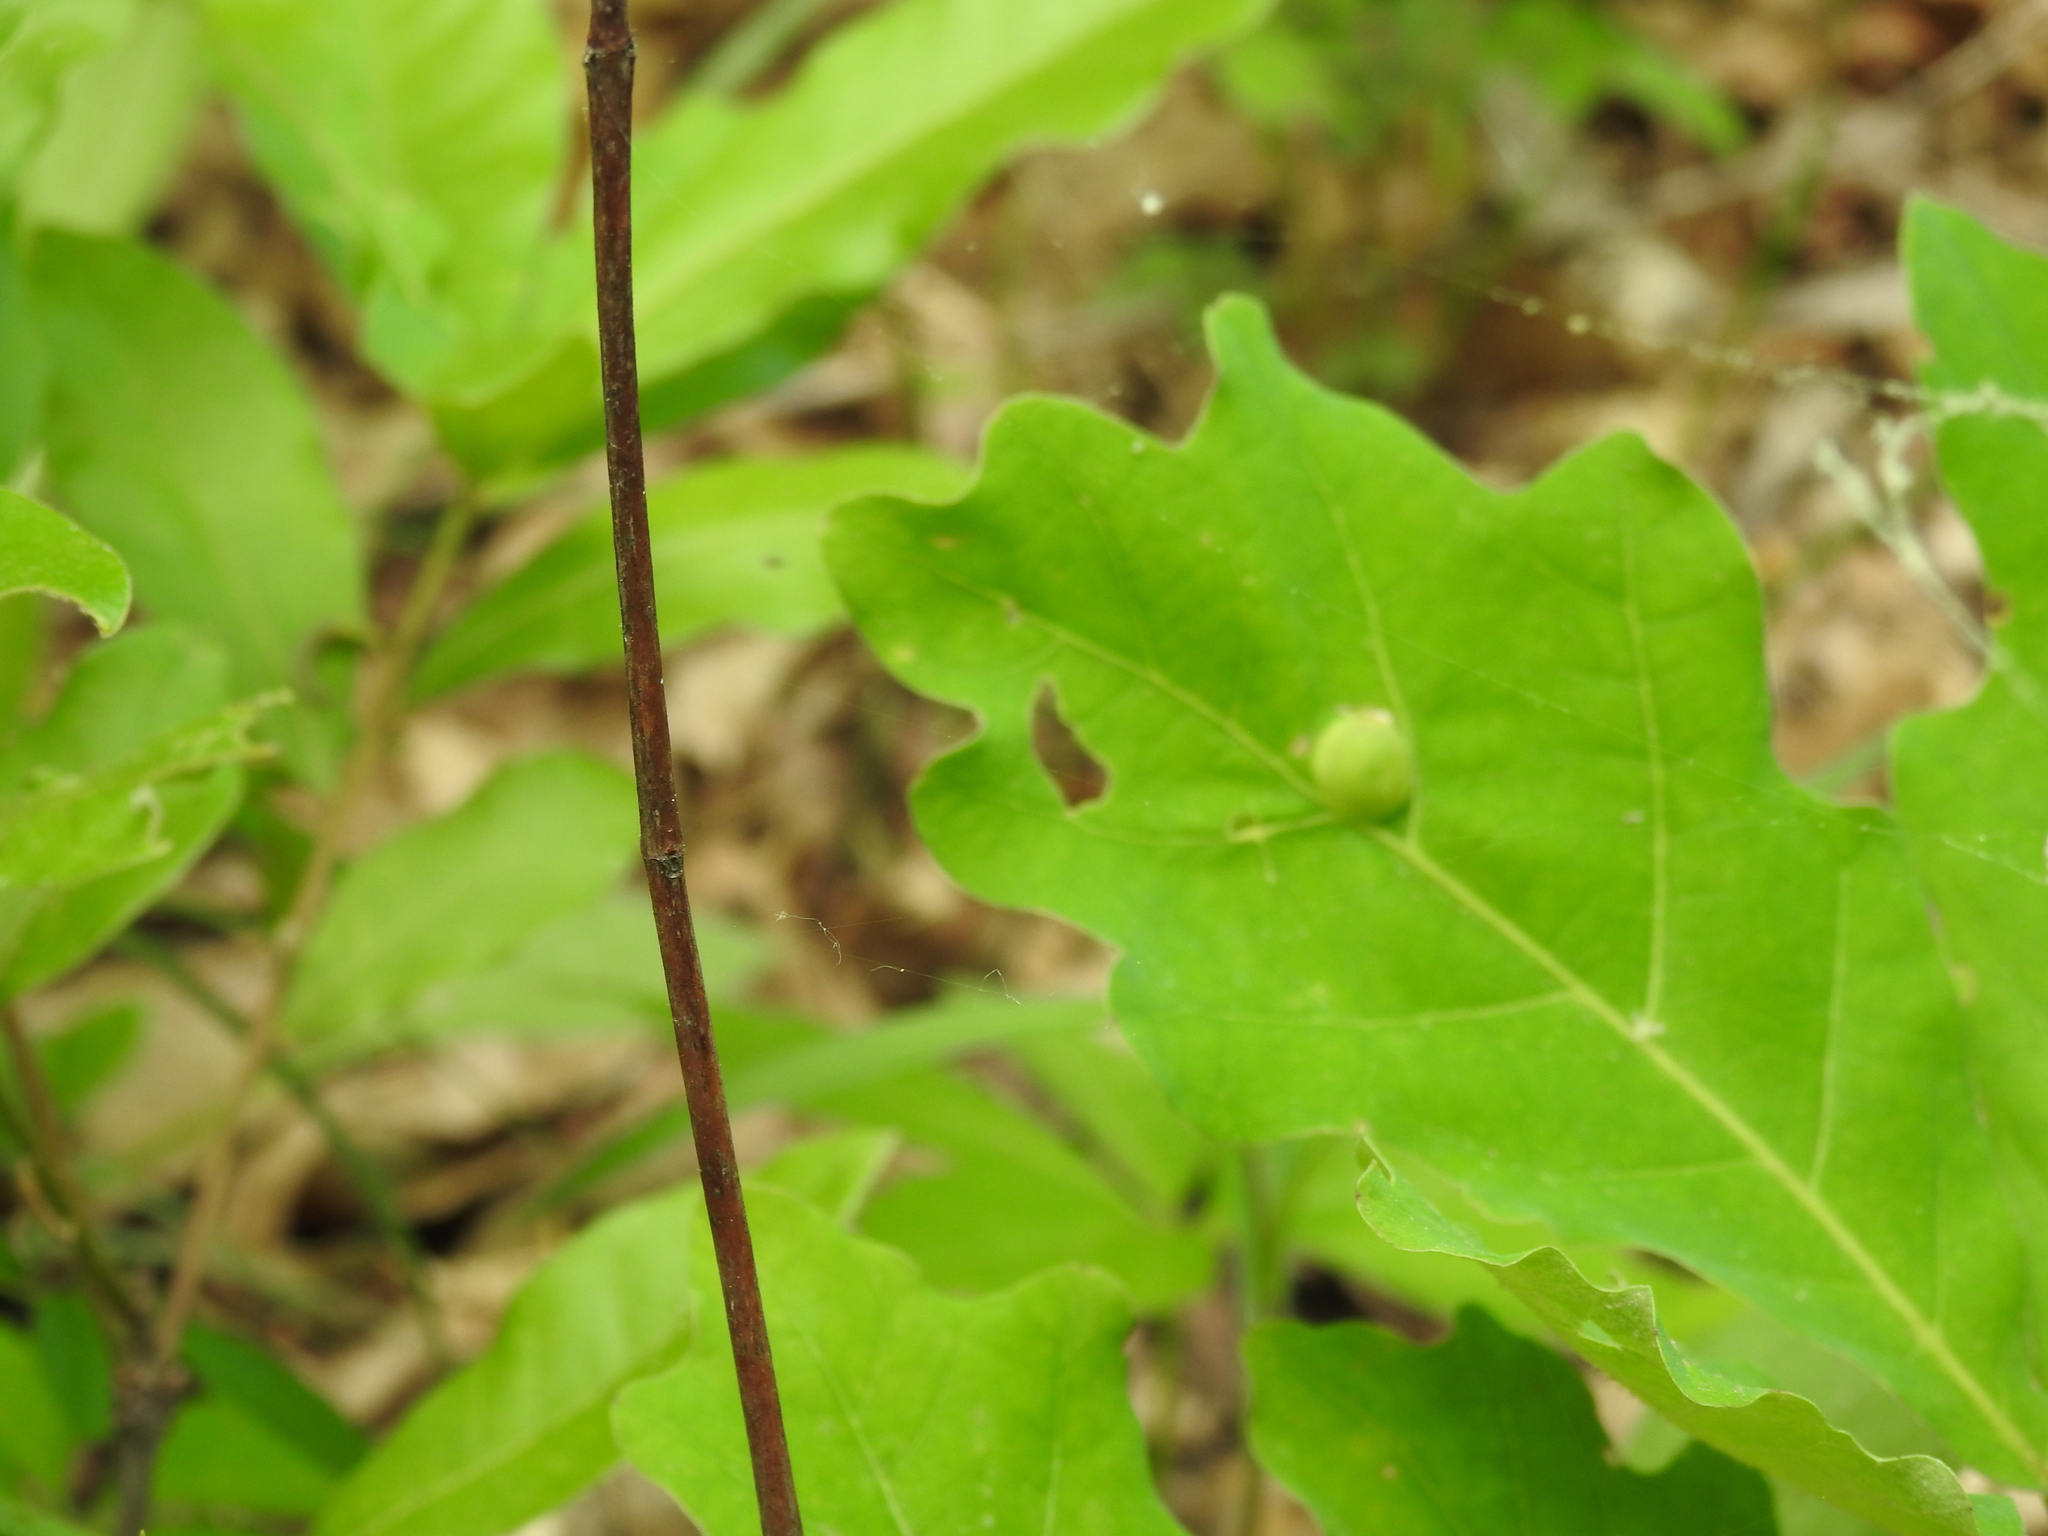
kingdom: Animalia
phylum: Arthropoda
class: Insecta
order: Hymenoptera
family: Cynipidae
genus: Callirhytis
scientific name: Callirhytis
